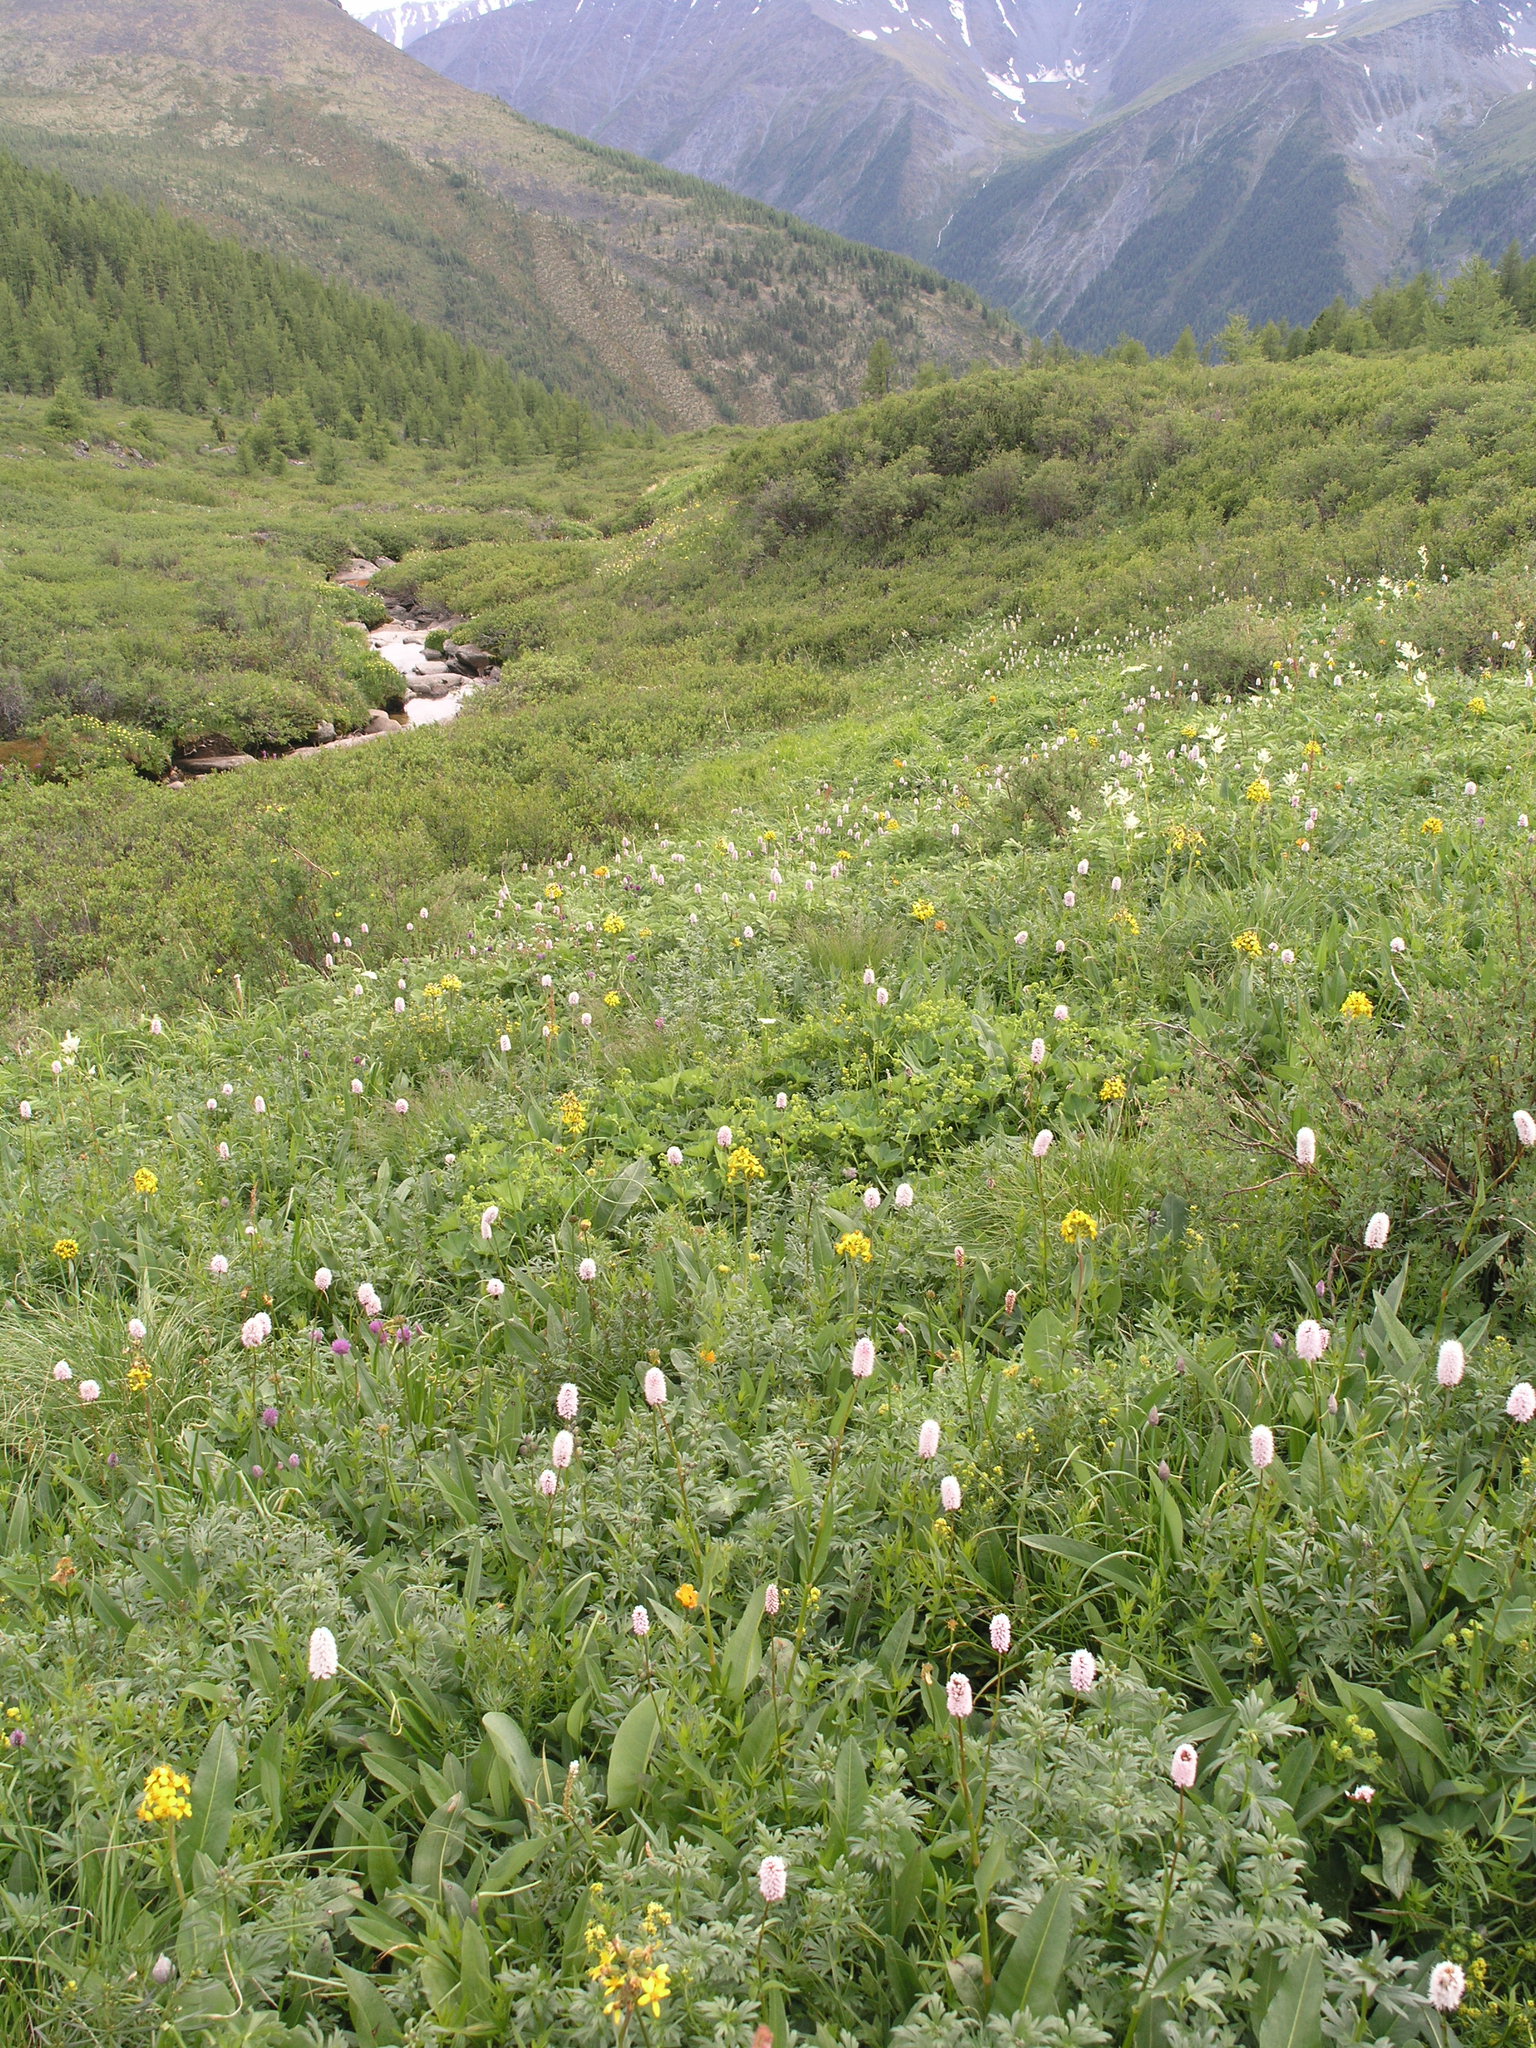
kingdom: Plantae
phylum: Tracheophyta
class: Magnoliopsida
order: Caryophyllales
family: Polygonaceae
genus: Bistorta
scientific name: Bistorta officinalis
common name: Common bistort
